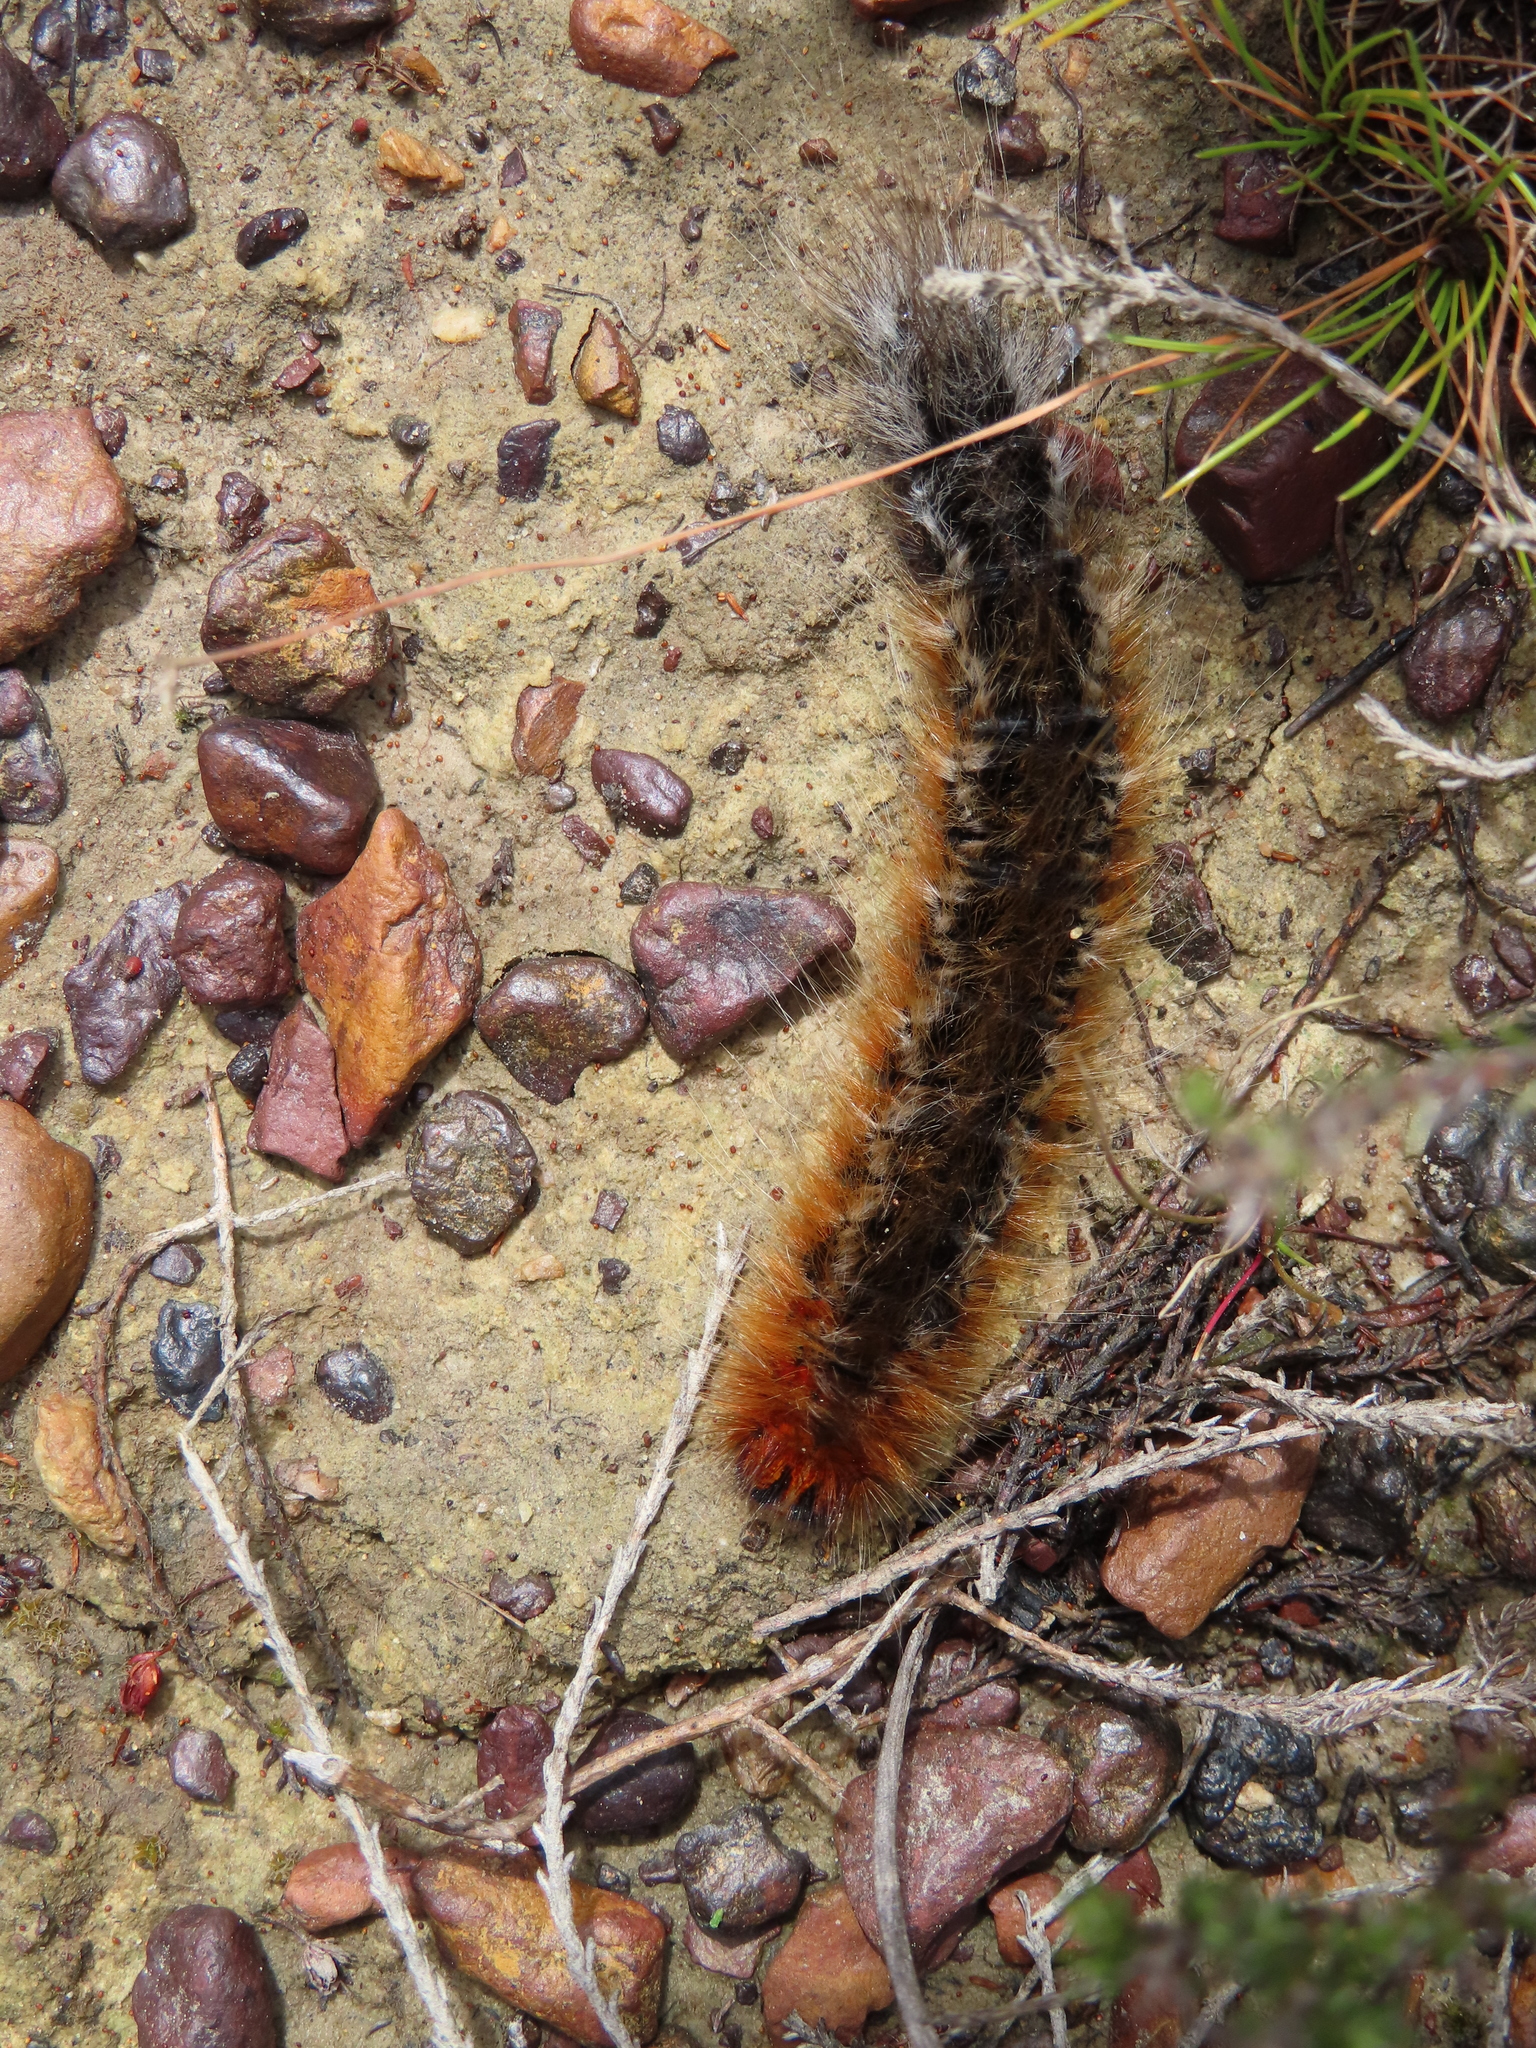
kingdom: Animalia
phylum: Arthropoda
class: Insecta
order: Lepidoptera
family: Lasiocampidae
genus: Mesocelis
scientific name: Mesocelis monticola
